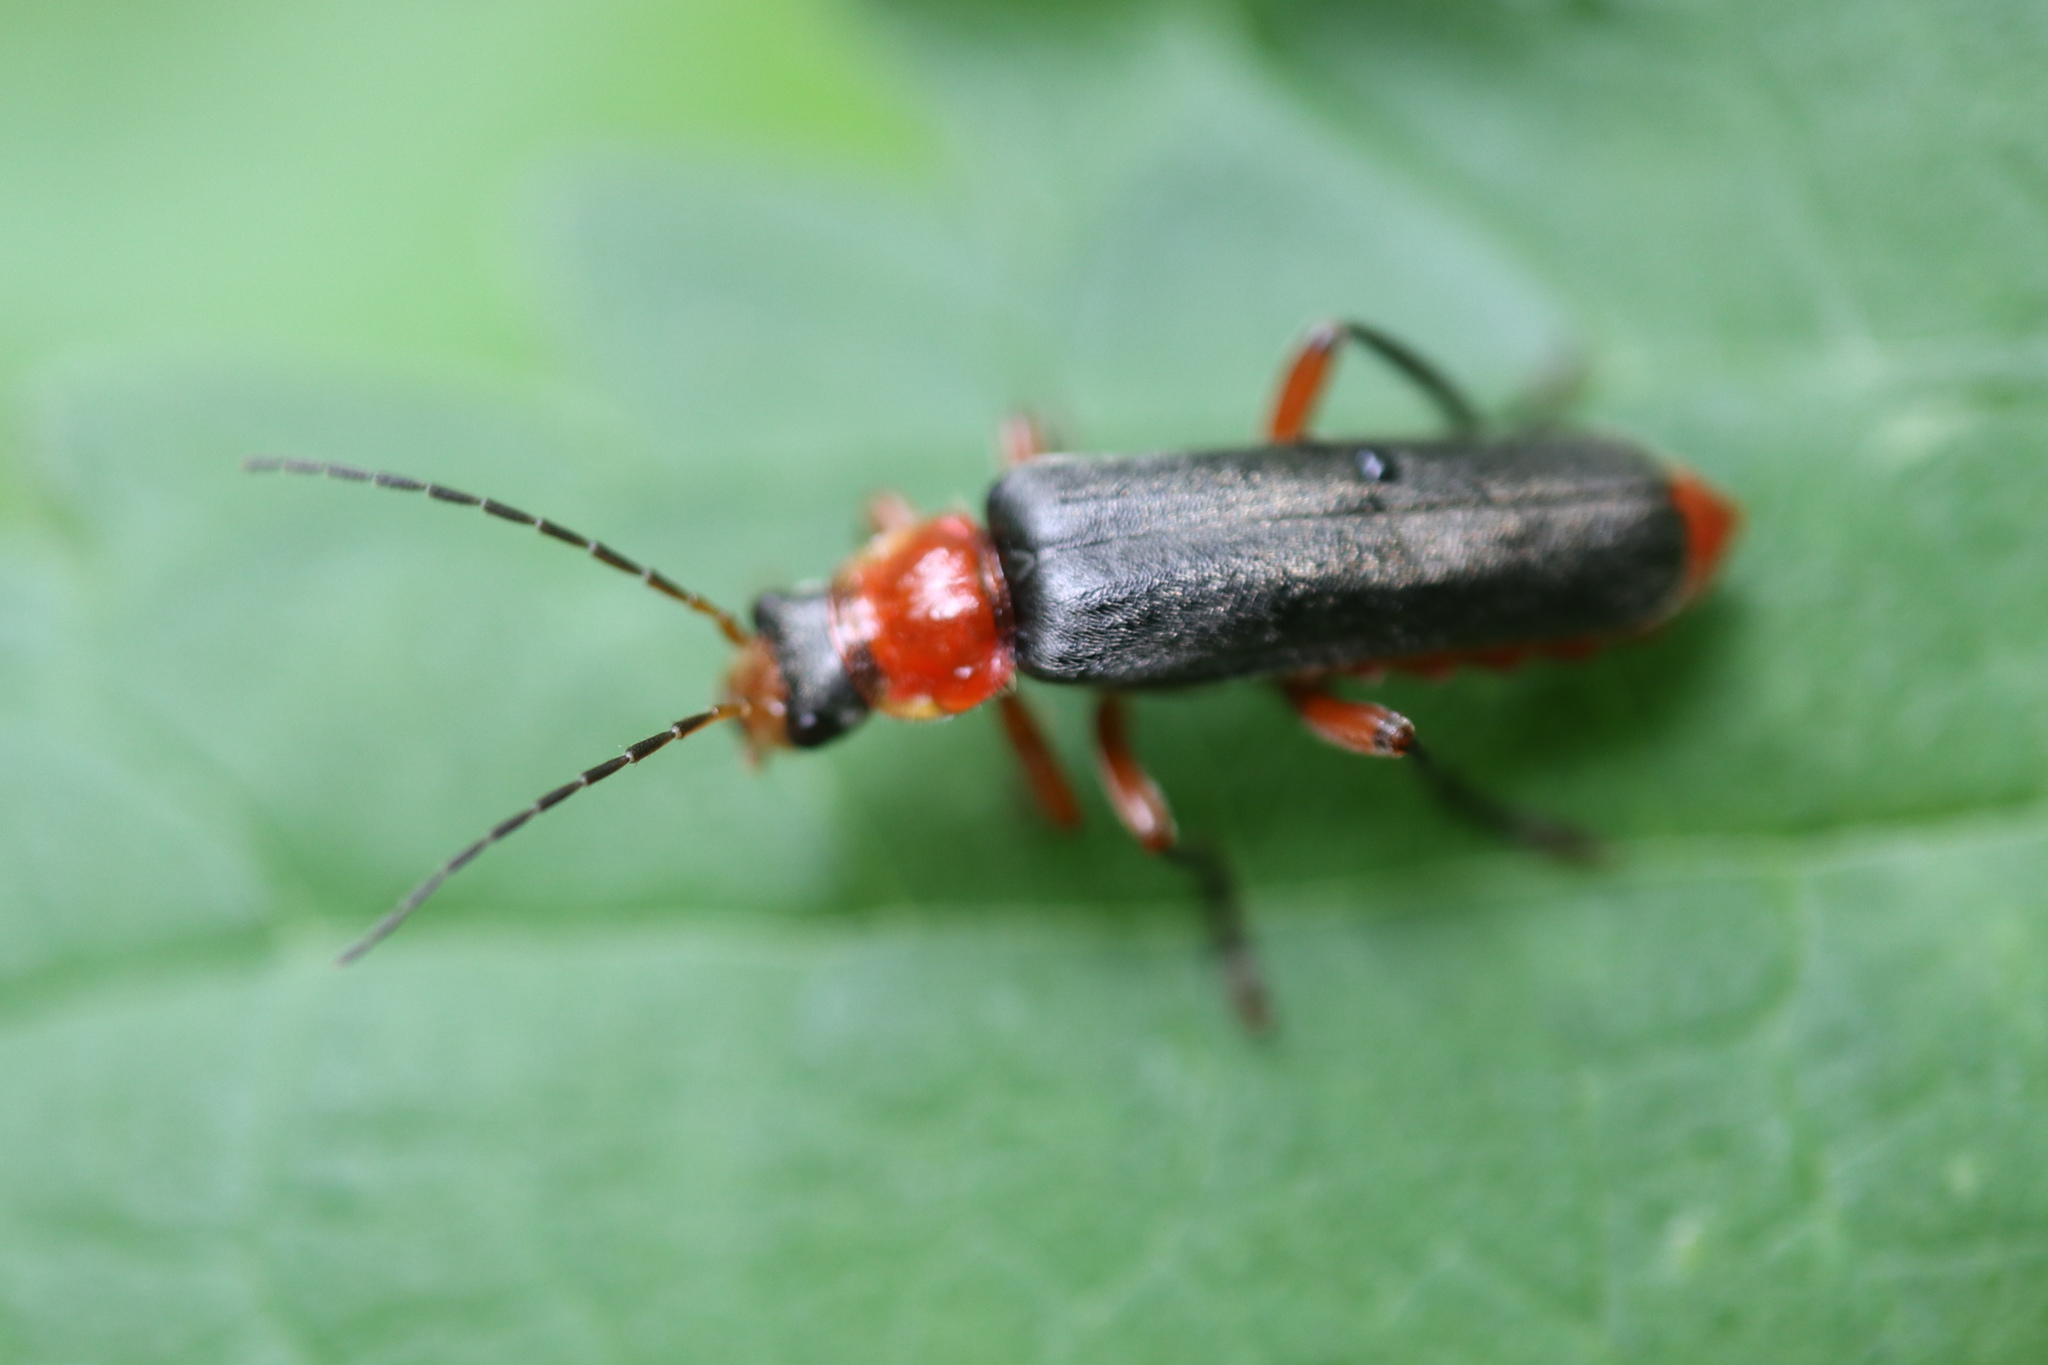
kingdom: Animalia
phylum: Arthropoda
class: Insecta
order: Coleoptera
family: Cantharidae
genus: Cantharis
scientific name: Cantharis pellucida
